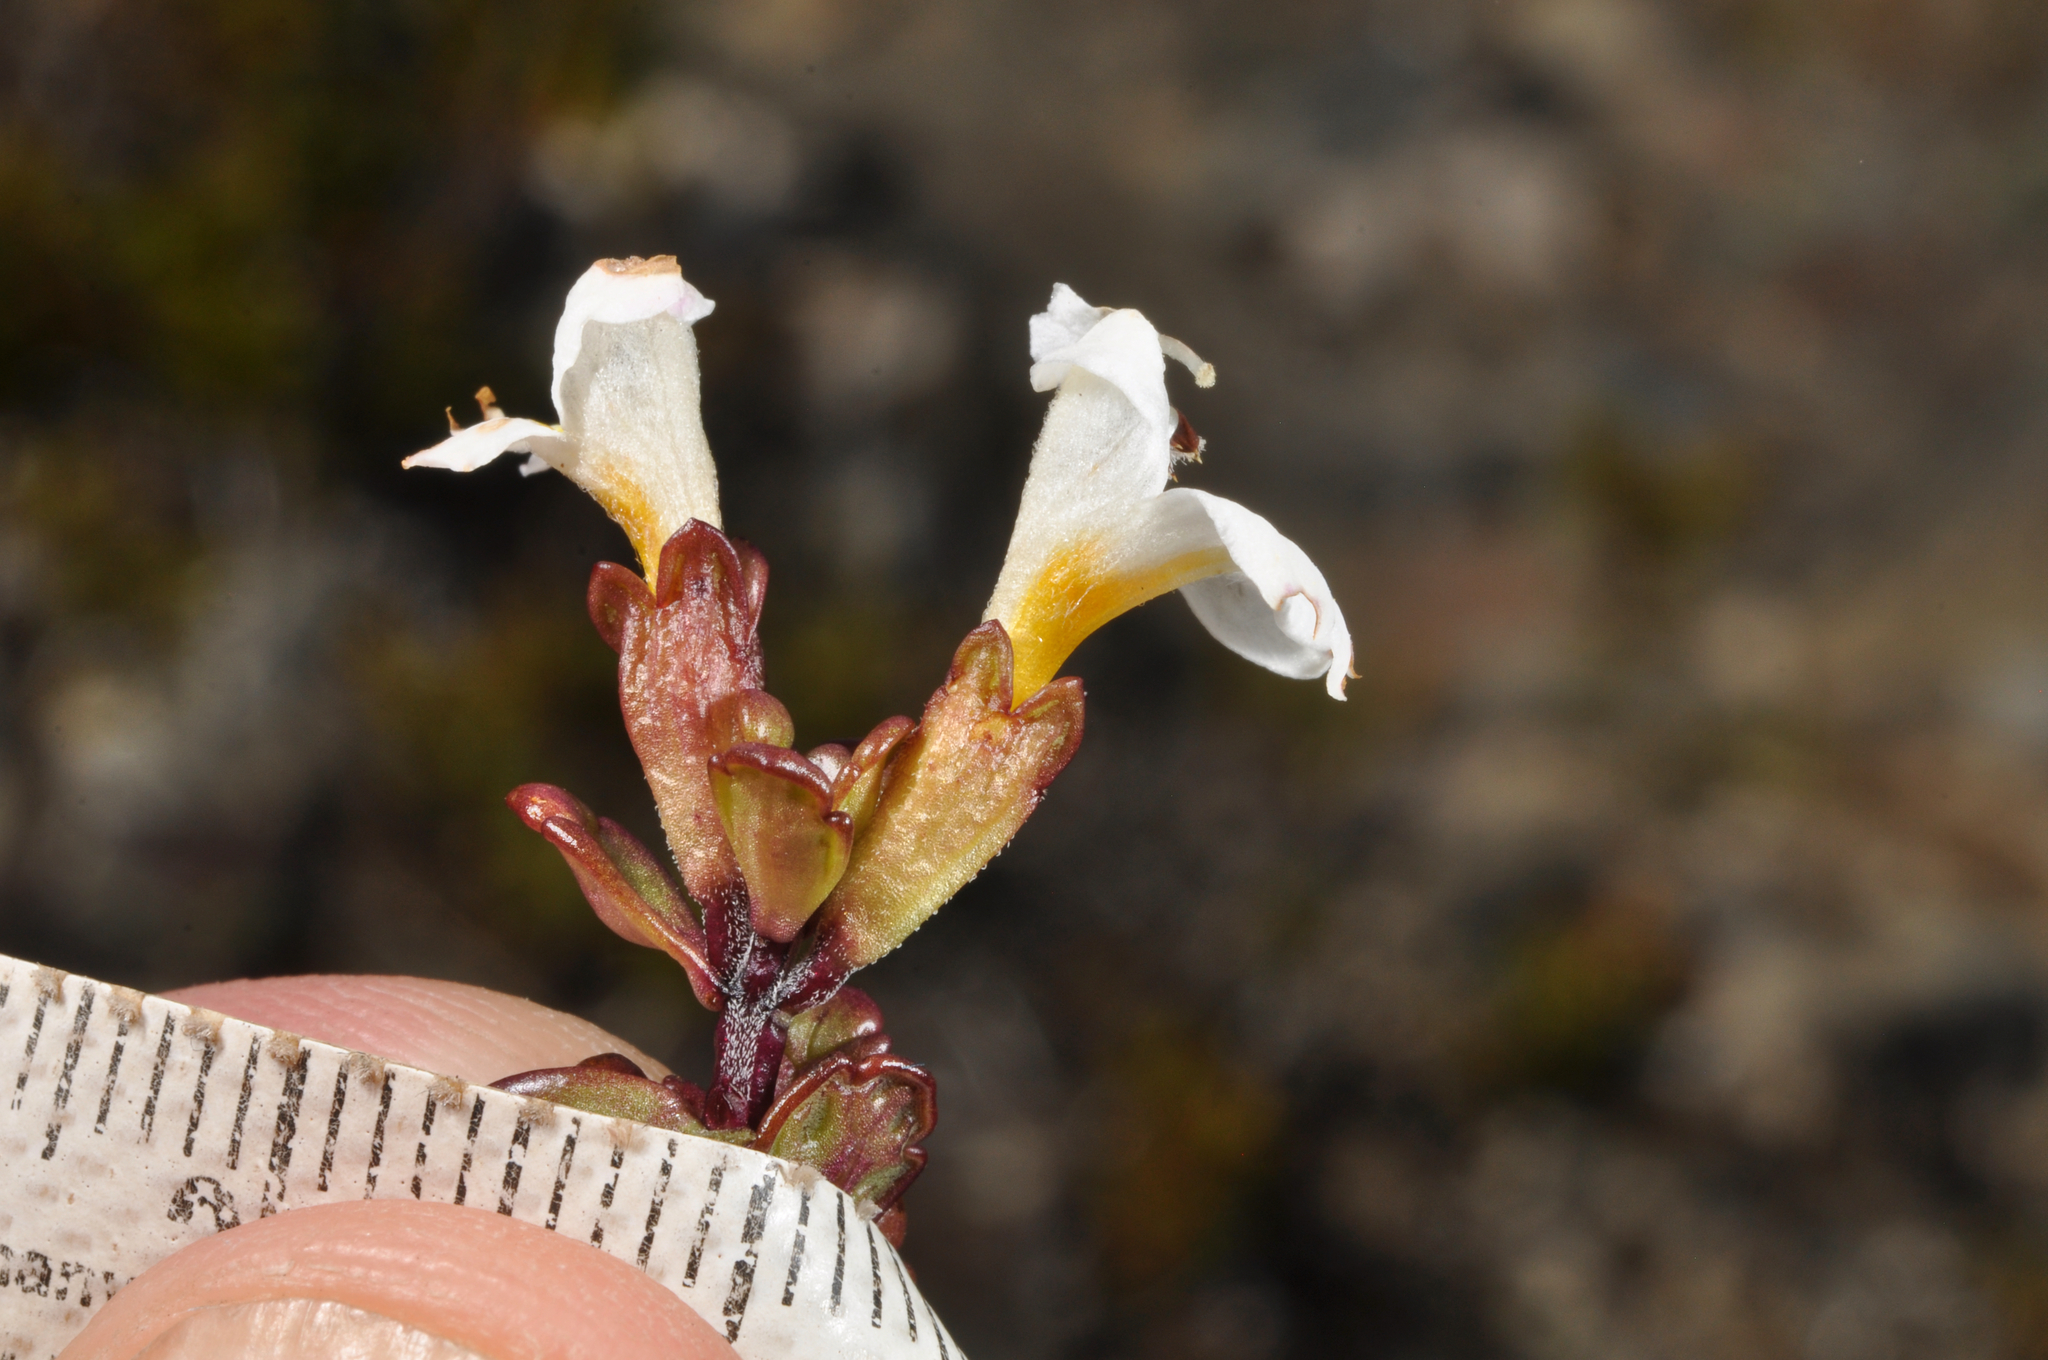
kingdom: Plantae
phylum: Tracheophyta
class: Magnoliopsida
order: Lamiales
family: Orobanchaceae
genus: Euphrasia
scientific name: Euphrasia laingii
